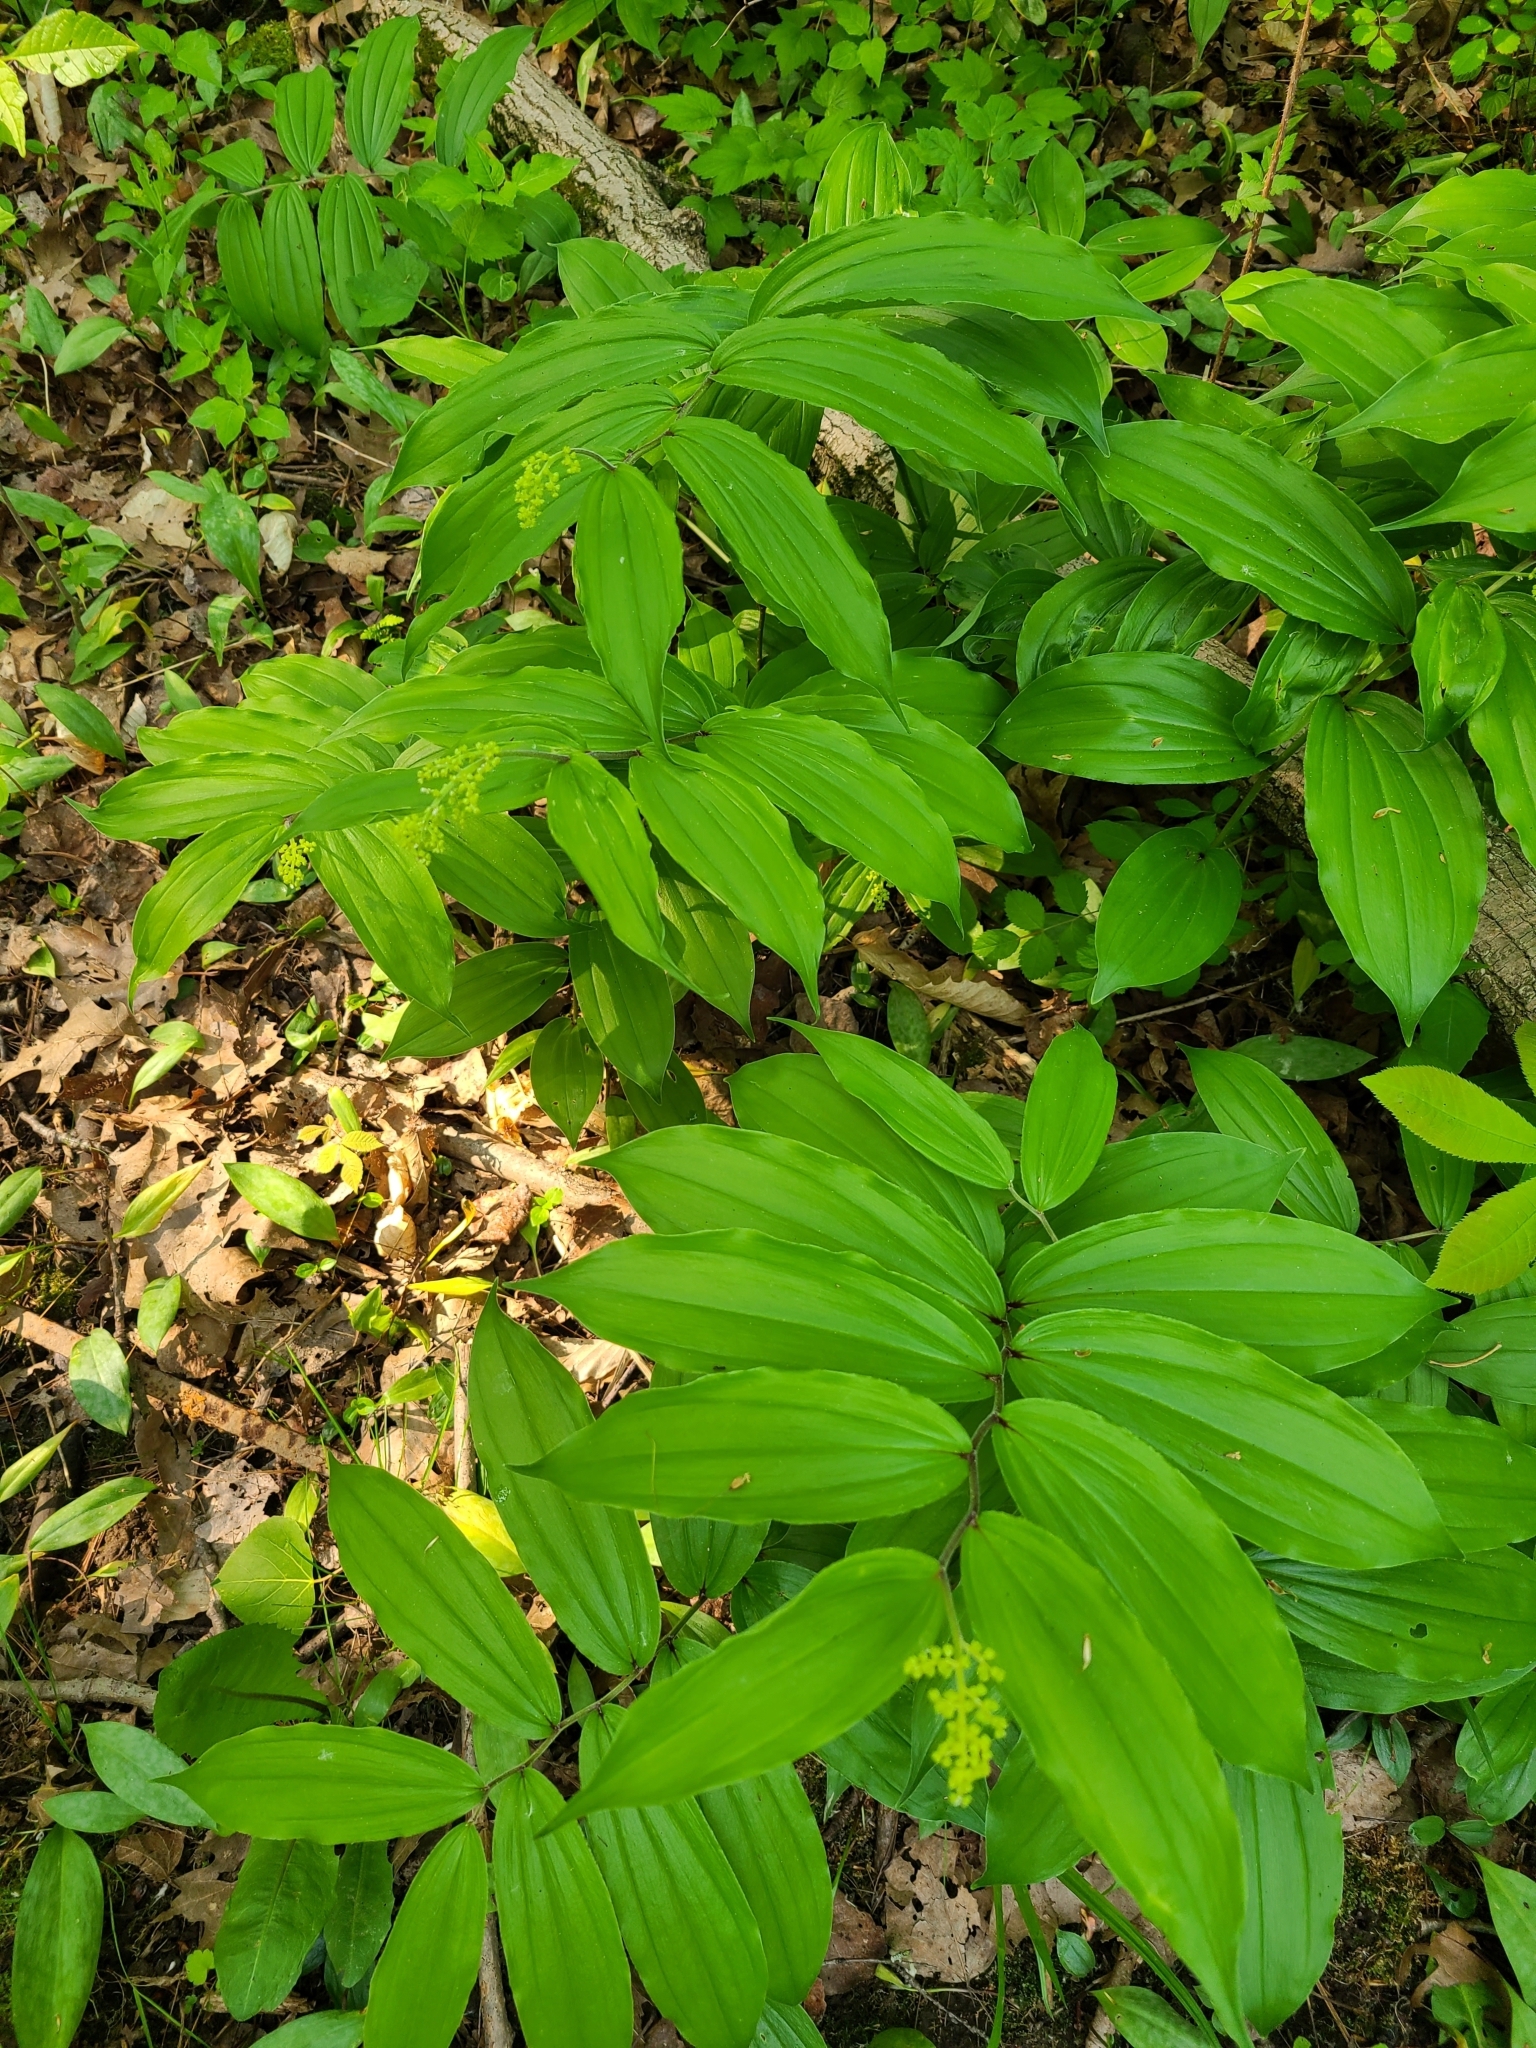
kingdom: Plantae
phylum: Tracheophyta
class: Liliopsida
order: Asparagales
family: Asparagaceae
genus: Maianthemum
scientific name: Maianthemum racemosum
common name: False spikenard
